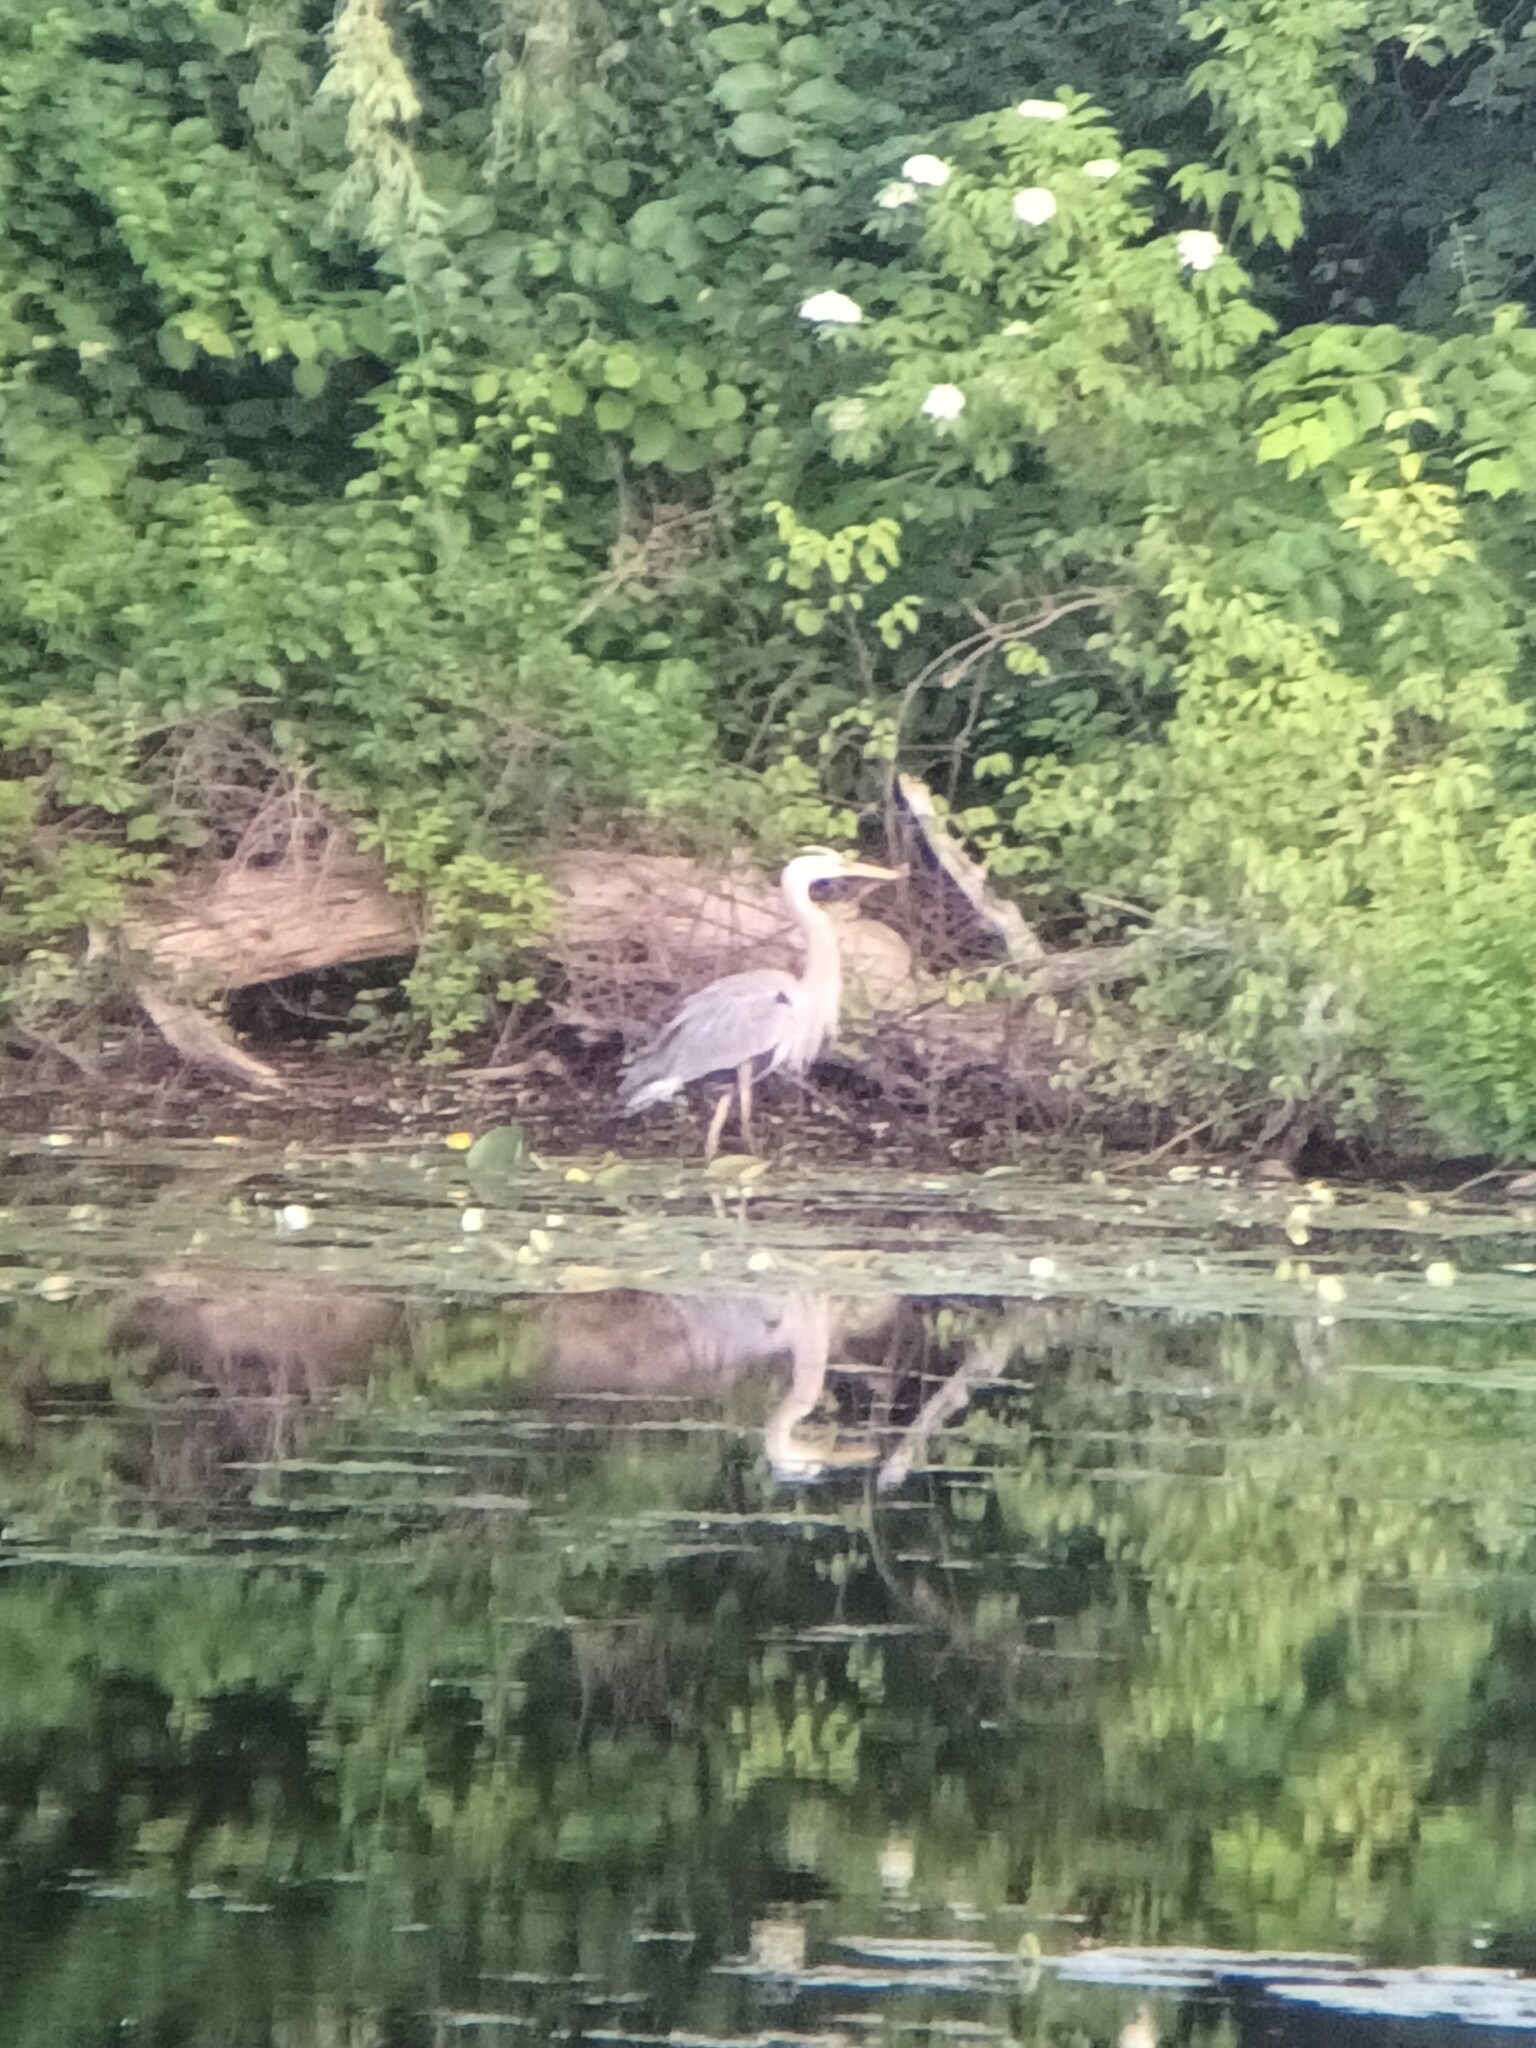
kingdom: Animalia
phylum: Chordata
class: Aves
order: Pelecaniformes
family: Ardeidae
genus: Ardea
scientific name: Ardea herodias
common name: Great blue heron
